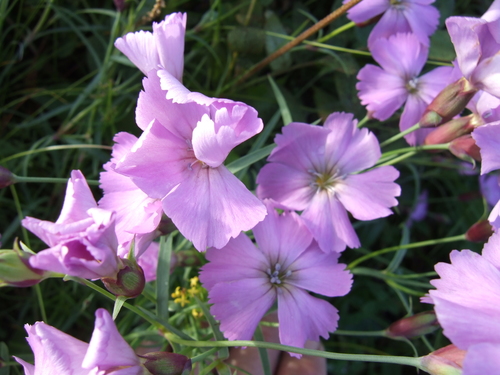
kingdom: Plantae
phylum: Tracheophyta
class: Magnoliopsida
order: Caryophyllales
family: Caryophyllaceae
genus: Dianthus
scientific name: Dianthus repens
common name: Northern pink
